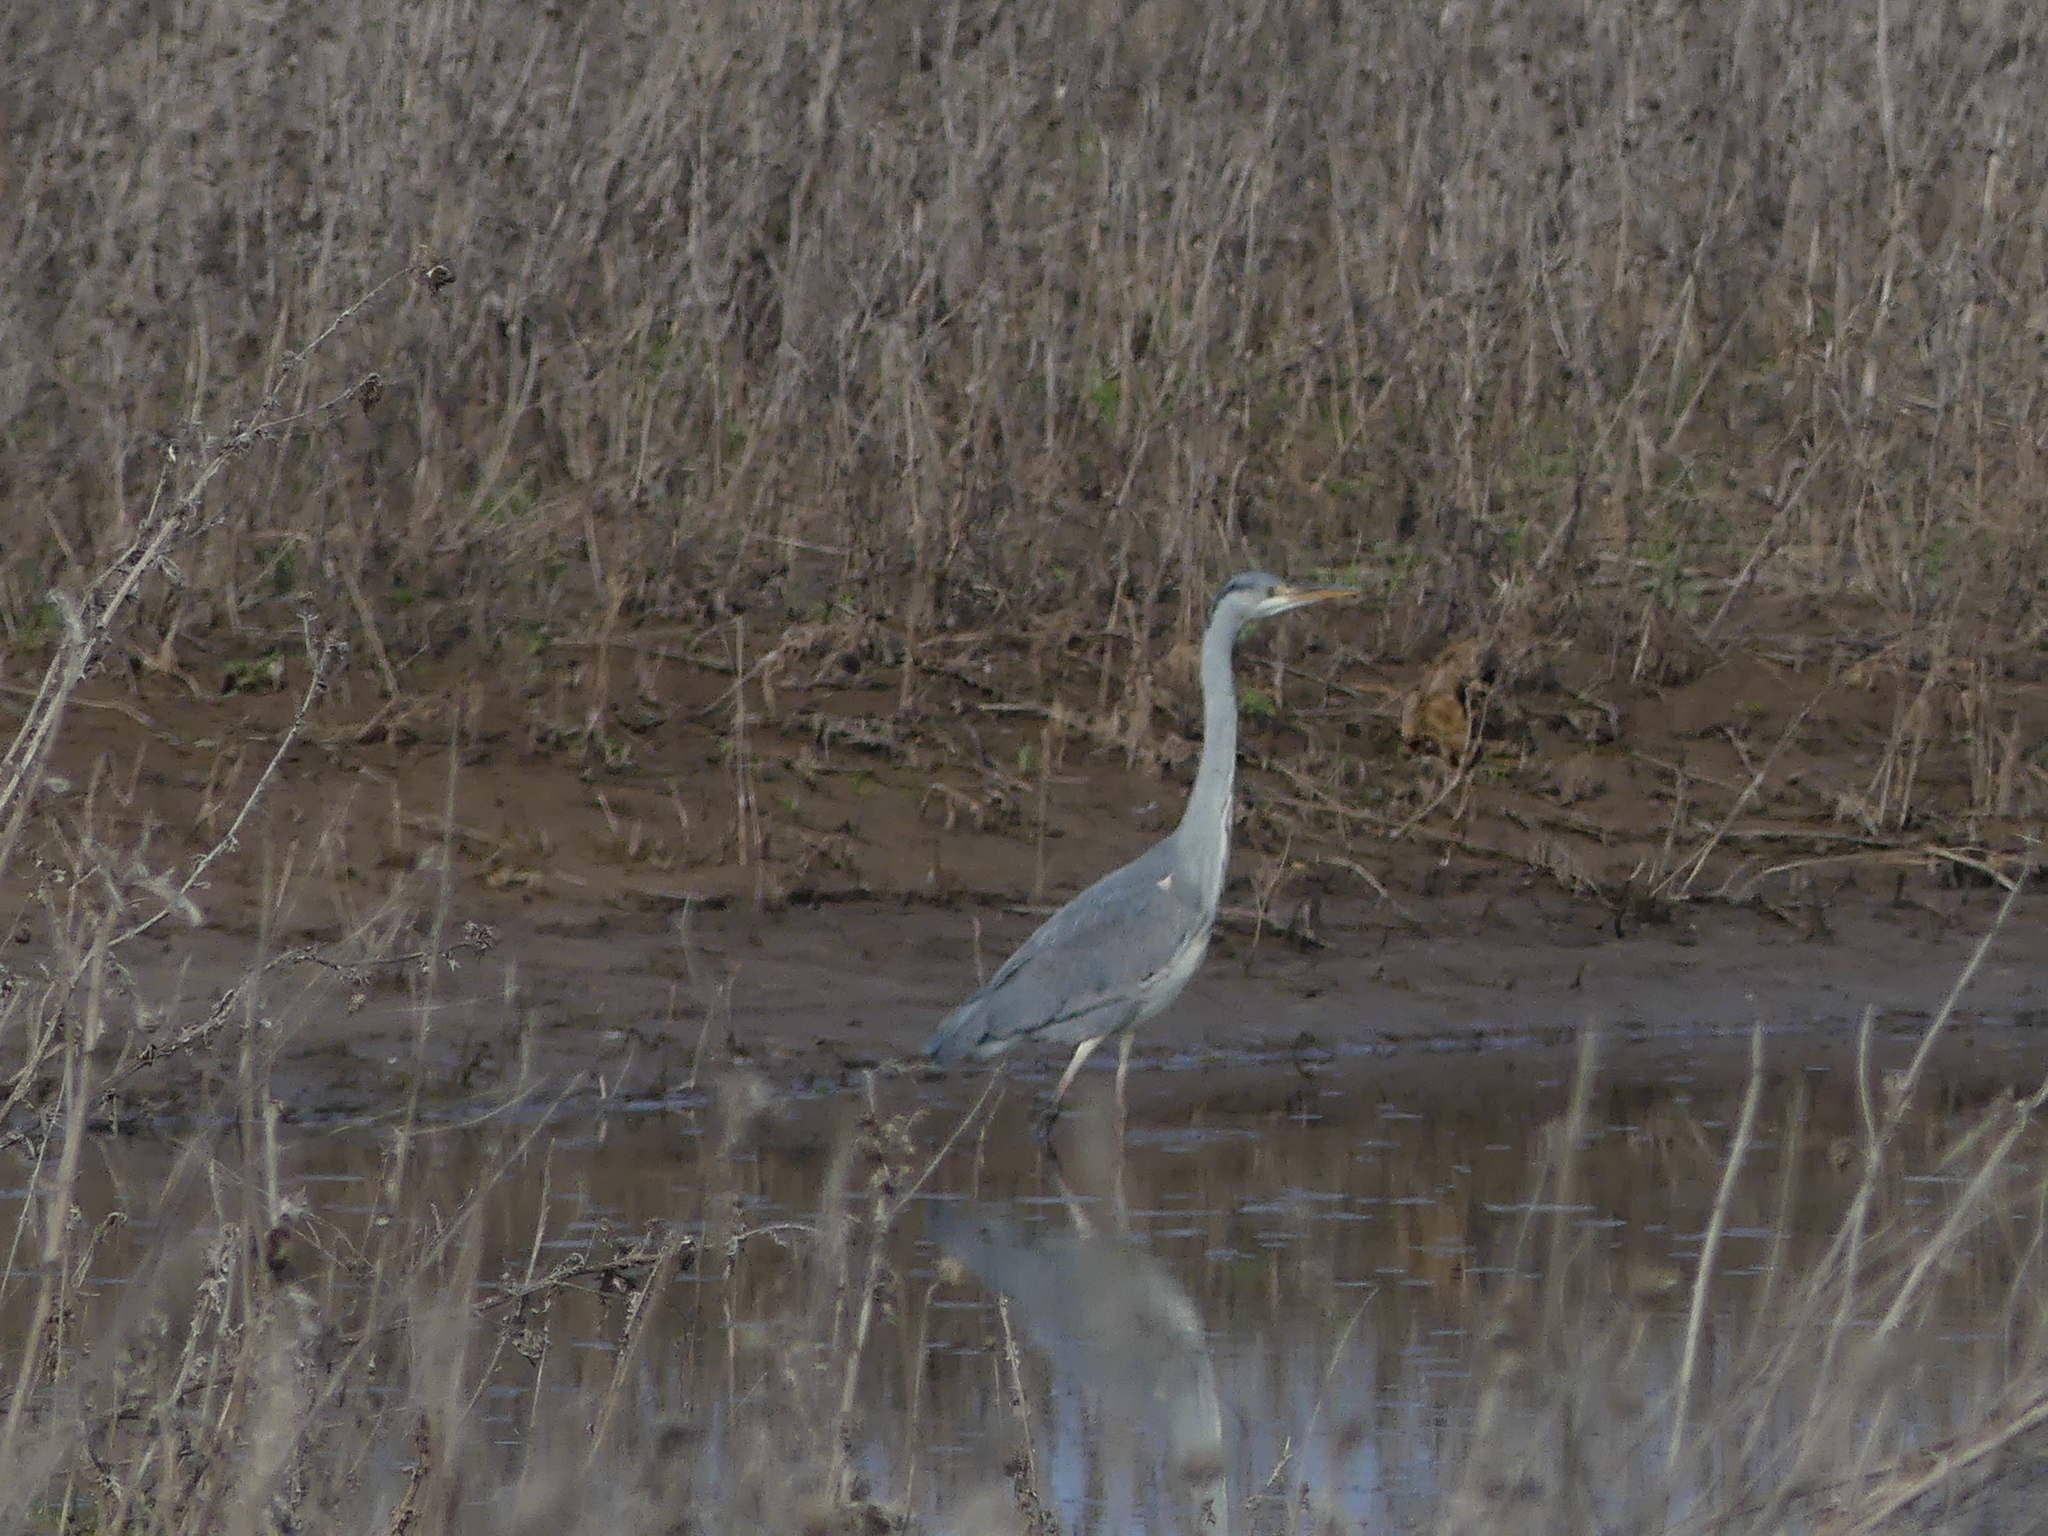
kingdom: Animalia
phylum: Chordata
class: Aves
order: Pelecaniformes
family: Ardeidae
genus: Ardea
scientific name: Ardea cinerea
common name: Grey heron
